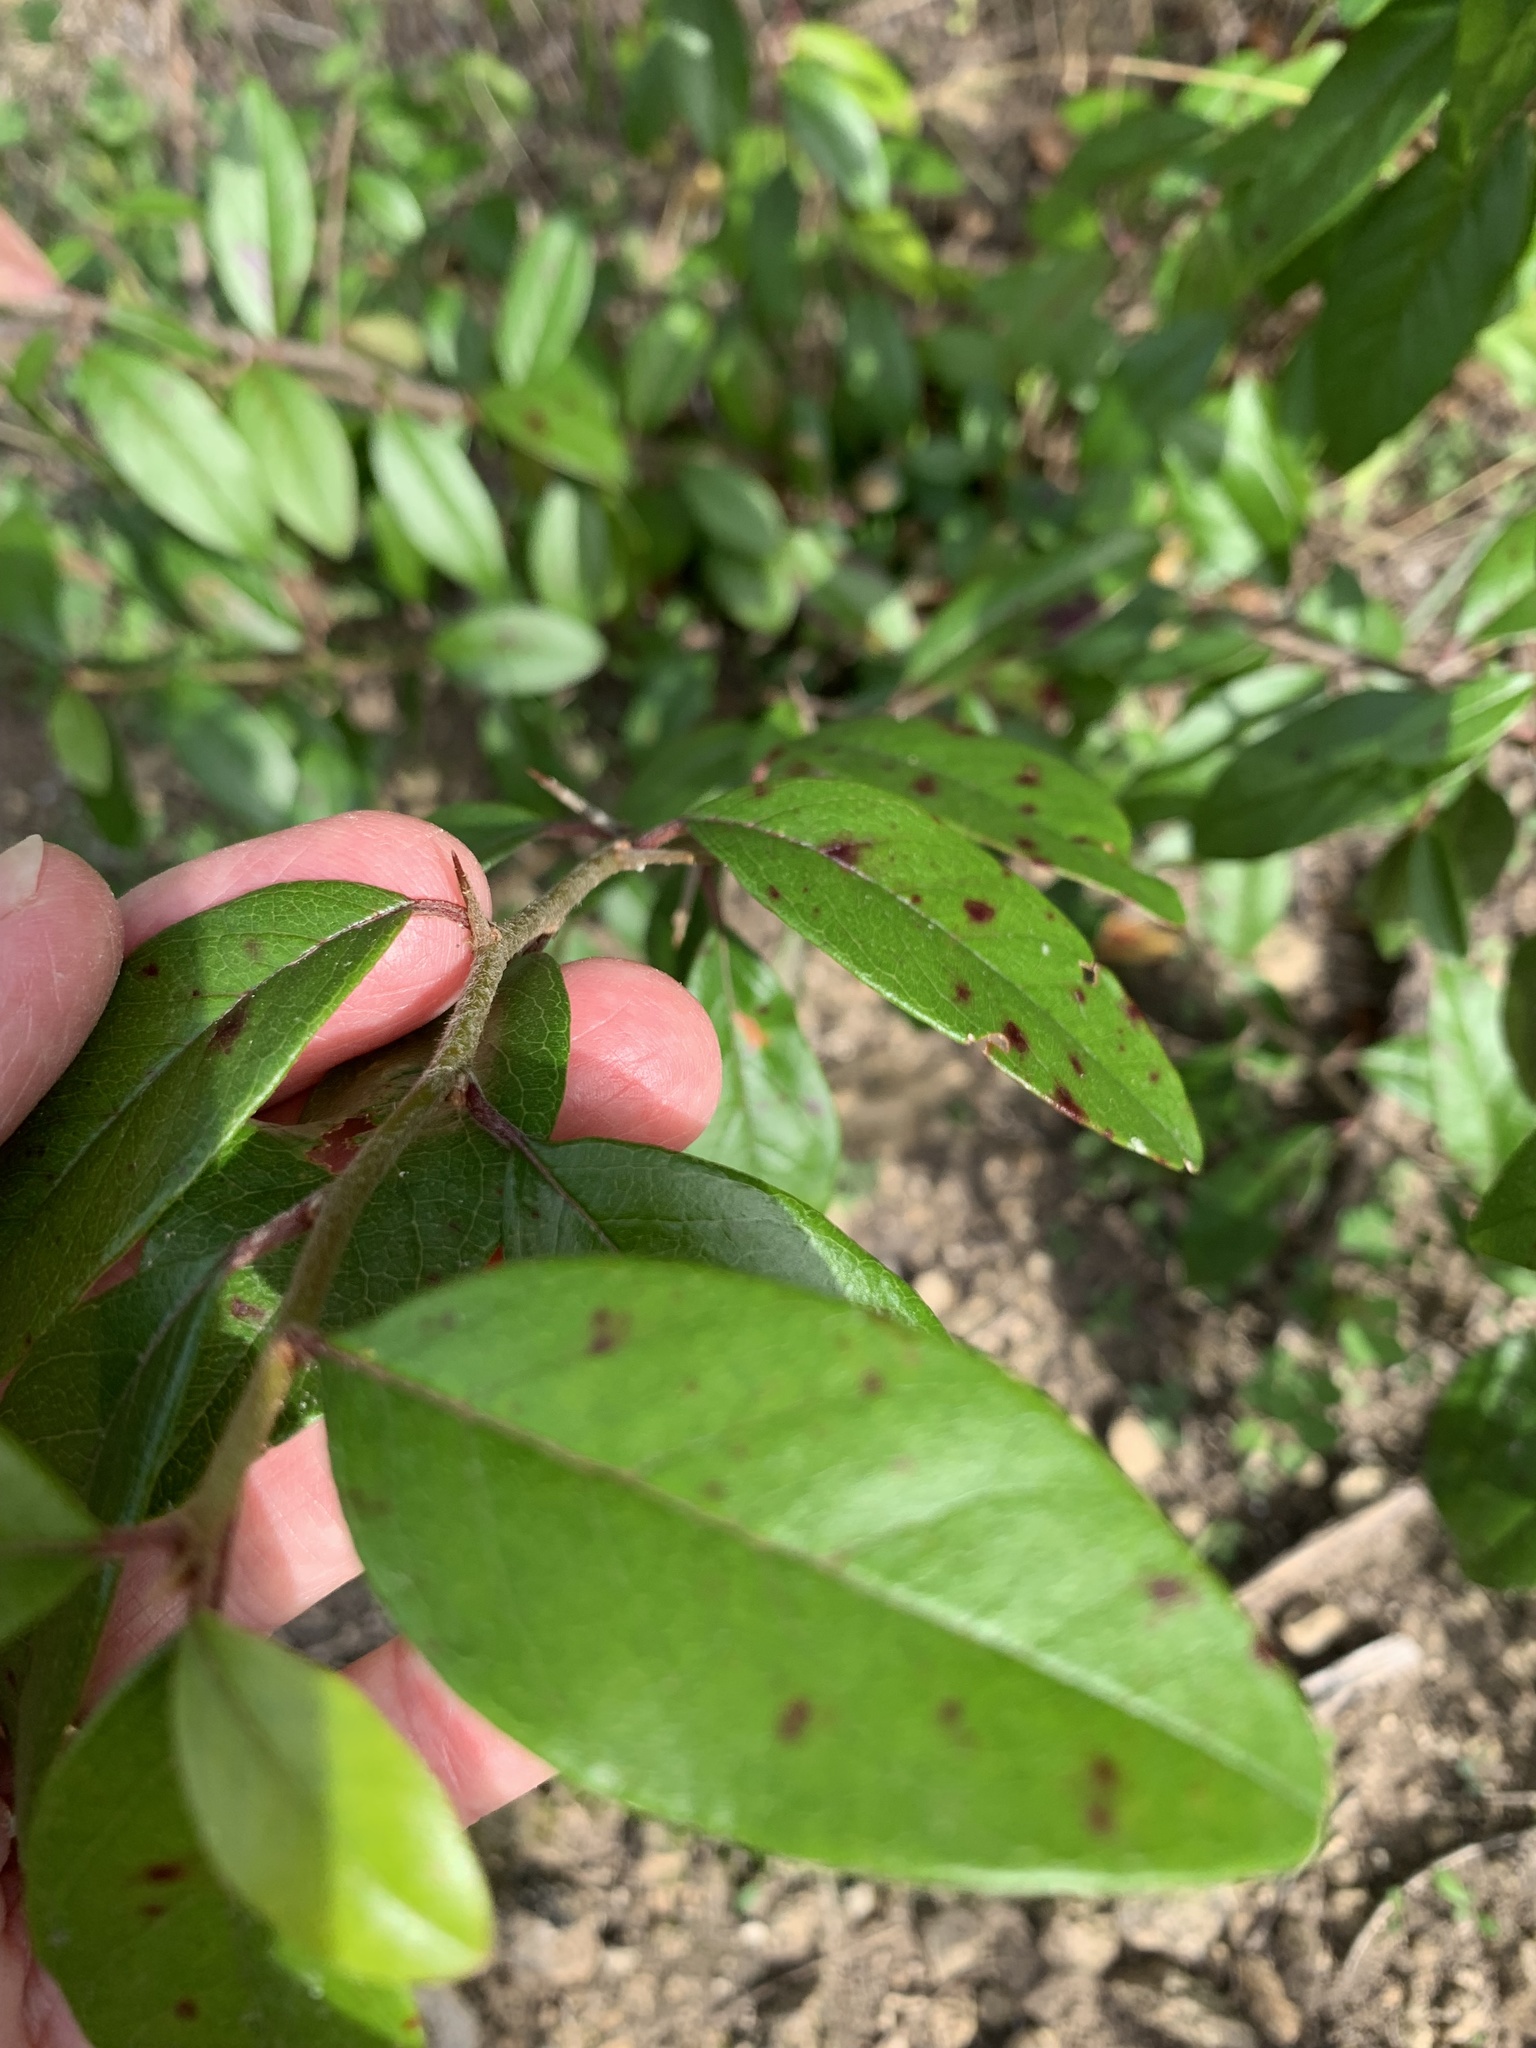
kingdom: Plantae
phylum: Tracheophyta
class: Magnoliopsida
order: Ericales
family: Sapotaceae
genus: Sideroxylon
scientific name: Sideroxylon lanuginosum
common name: Chittamwood
